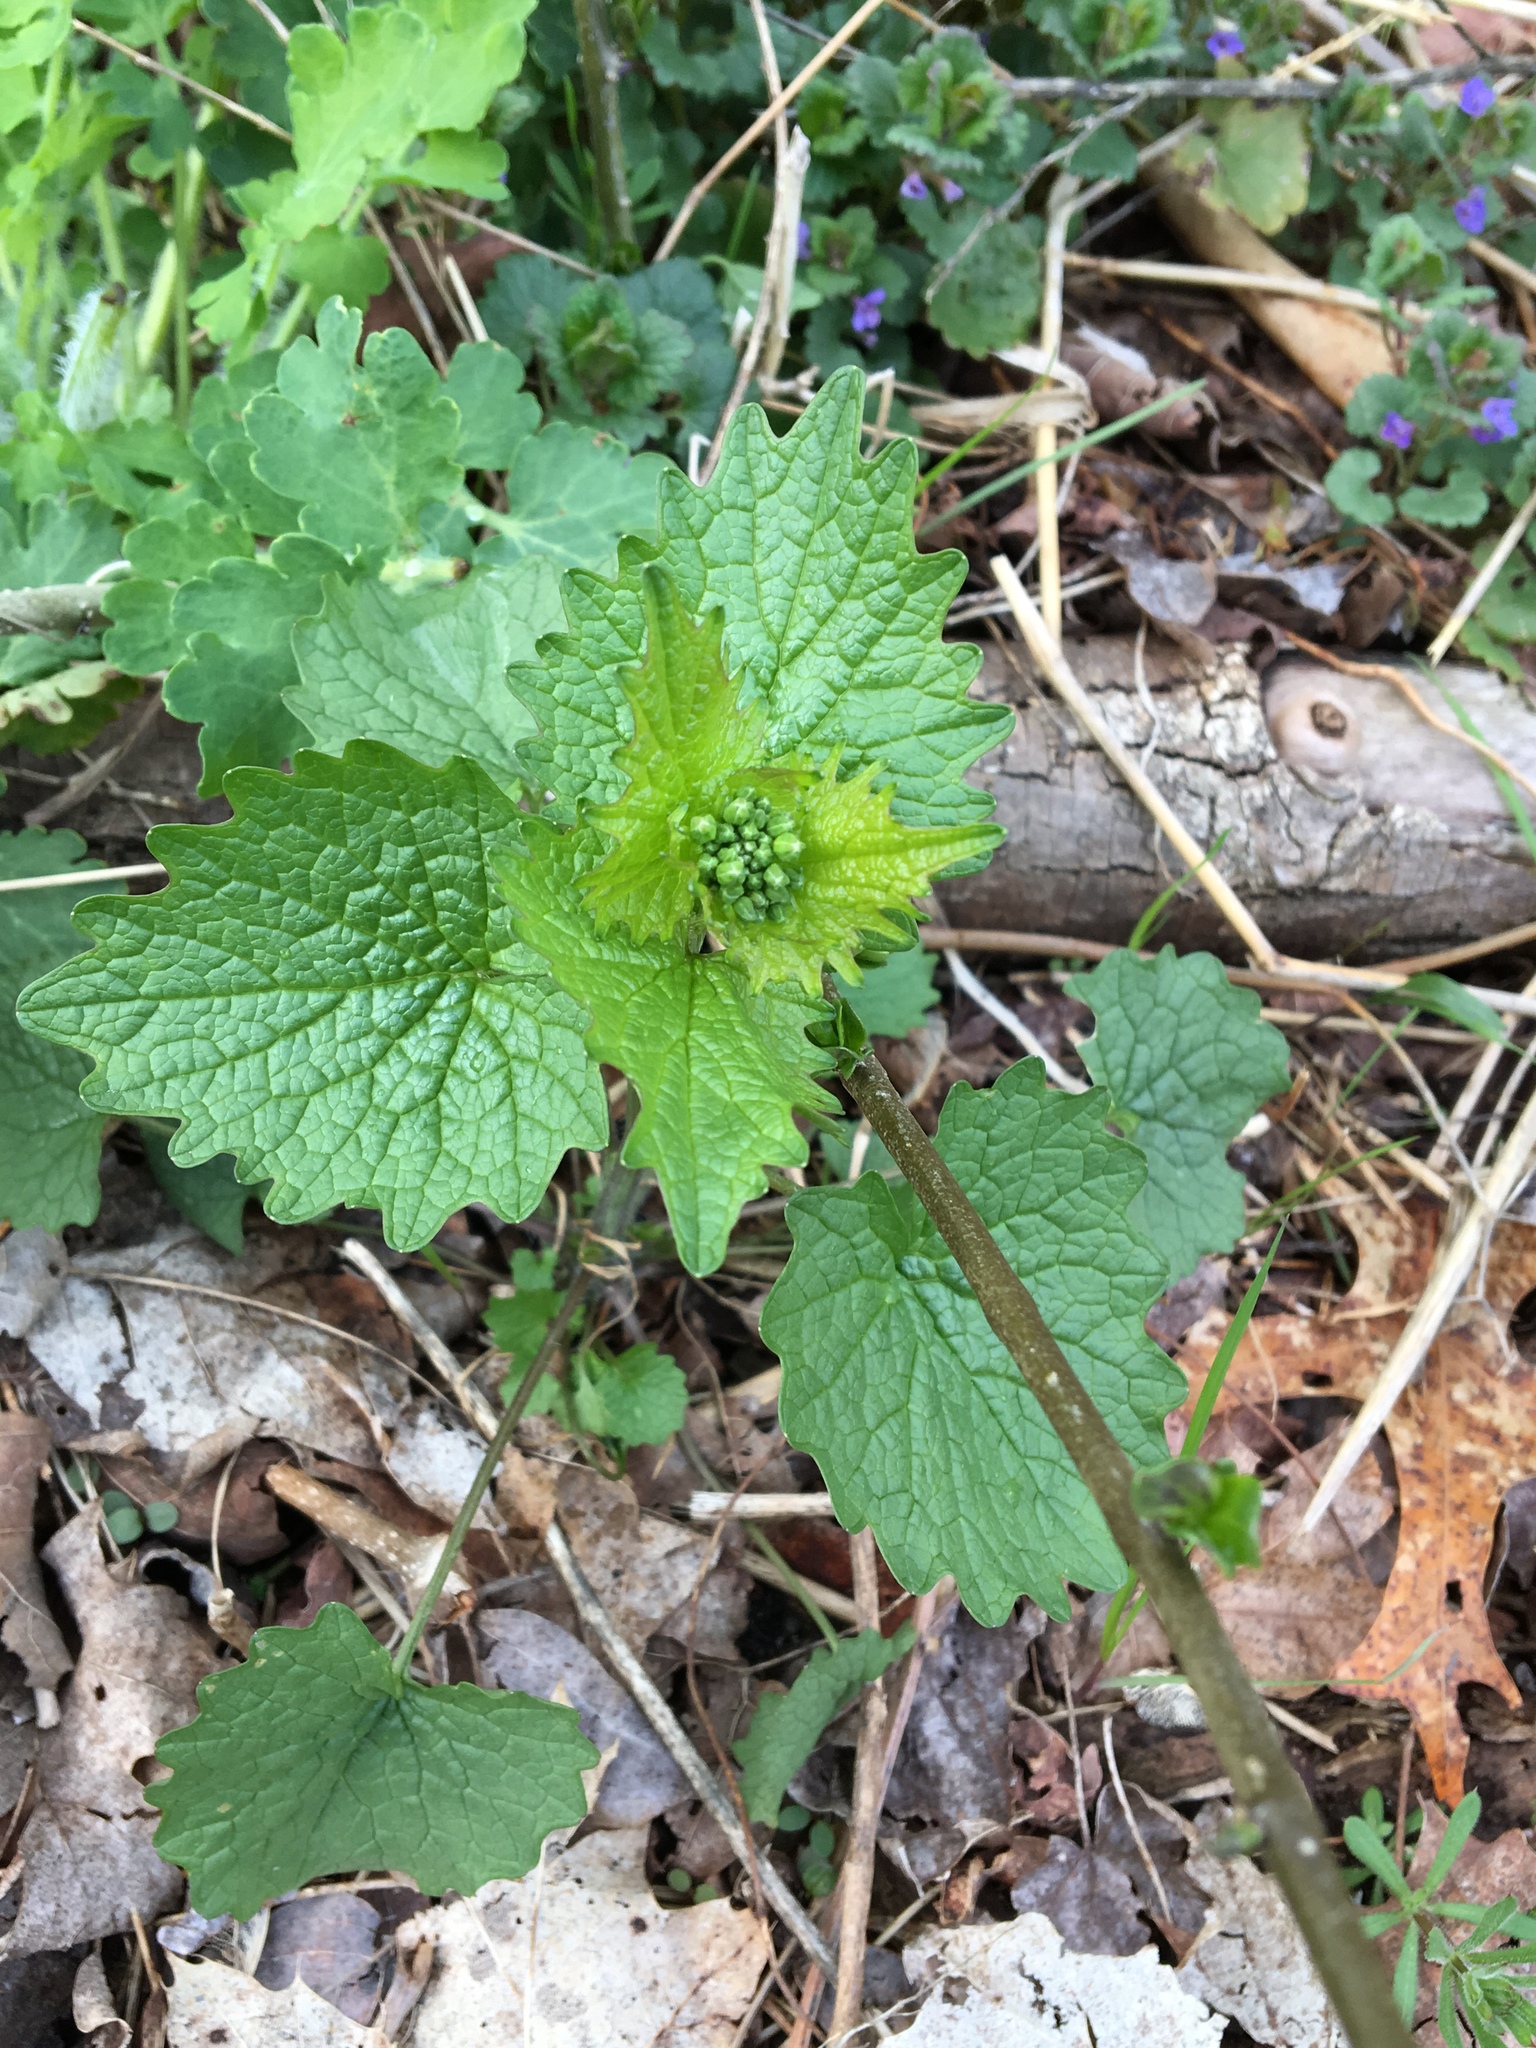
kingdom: Plantae
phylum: Tracheophyta
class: Magnoliopsida
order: Brassicales
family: Brassicaceae
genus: Alliaria
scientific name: Alliaria petiolata
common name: Garlic mustard
